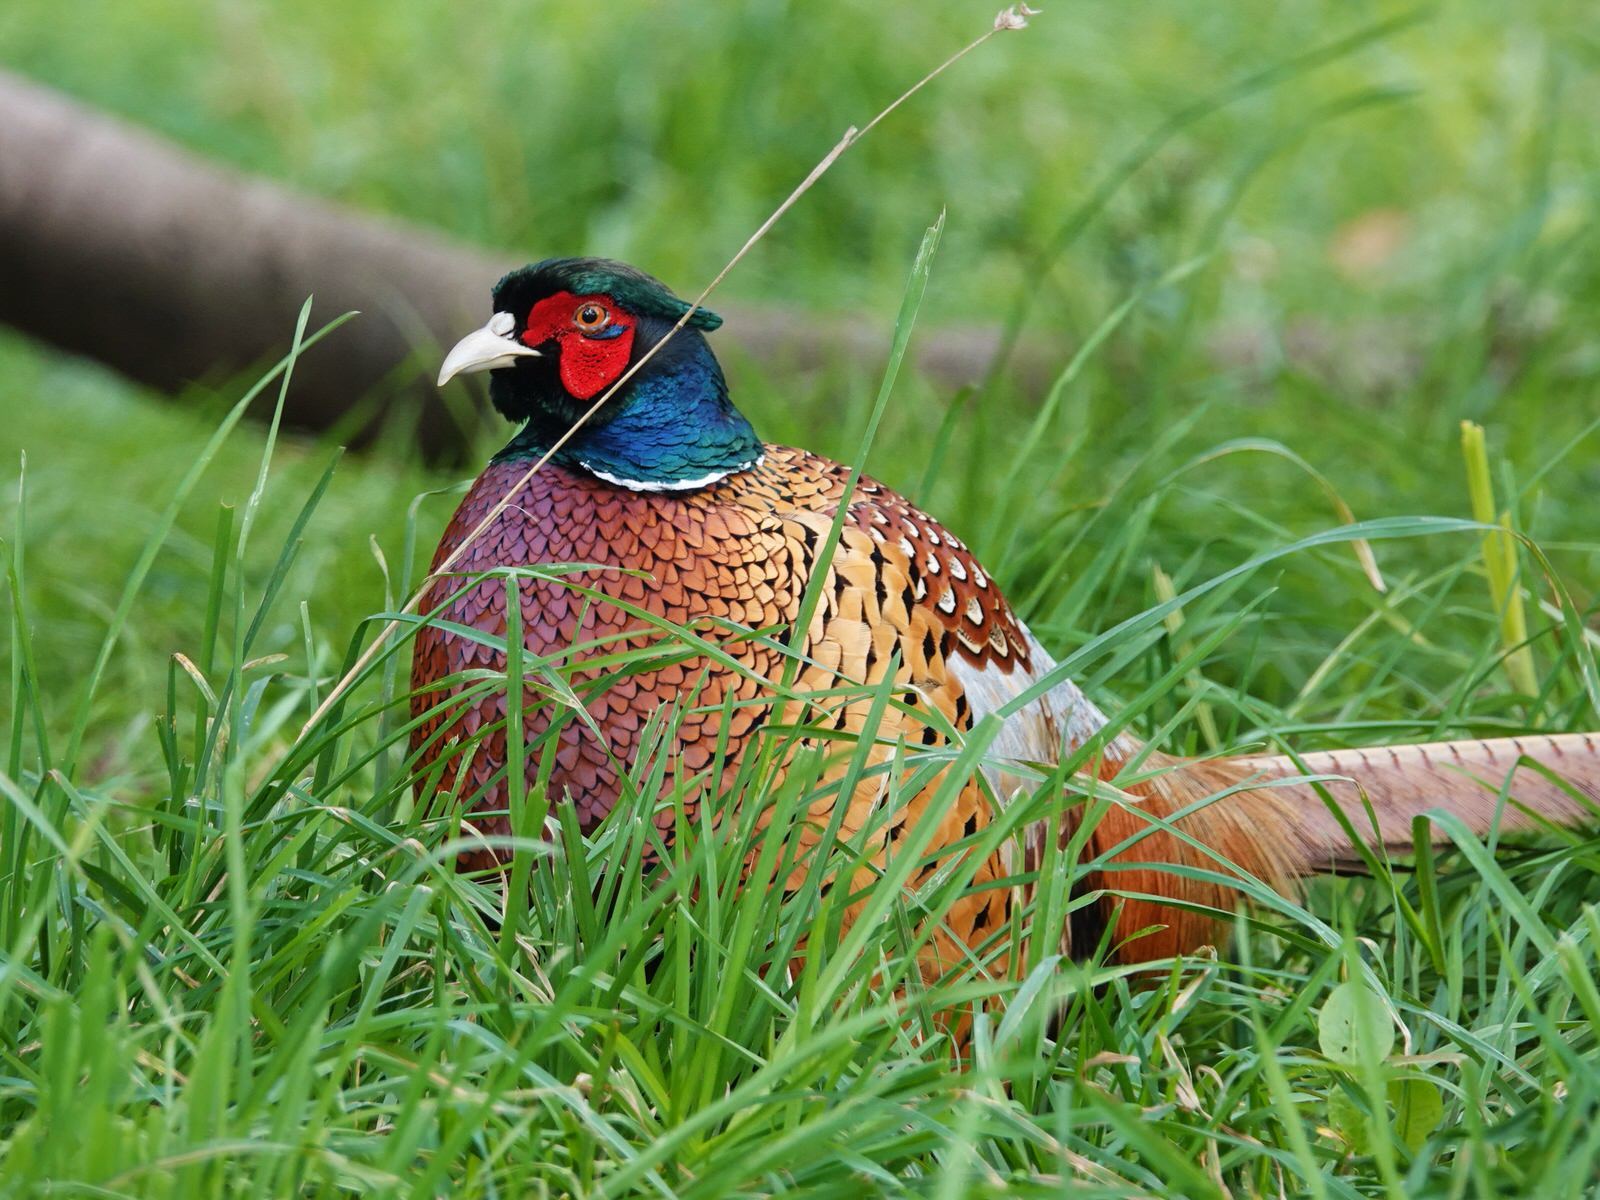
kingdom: Animalia
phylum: Chordata
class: Aves
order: Galliformes
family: Phasianidae
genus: Phasianus
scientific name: Phasianus colchicus
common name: Common pheasant
